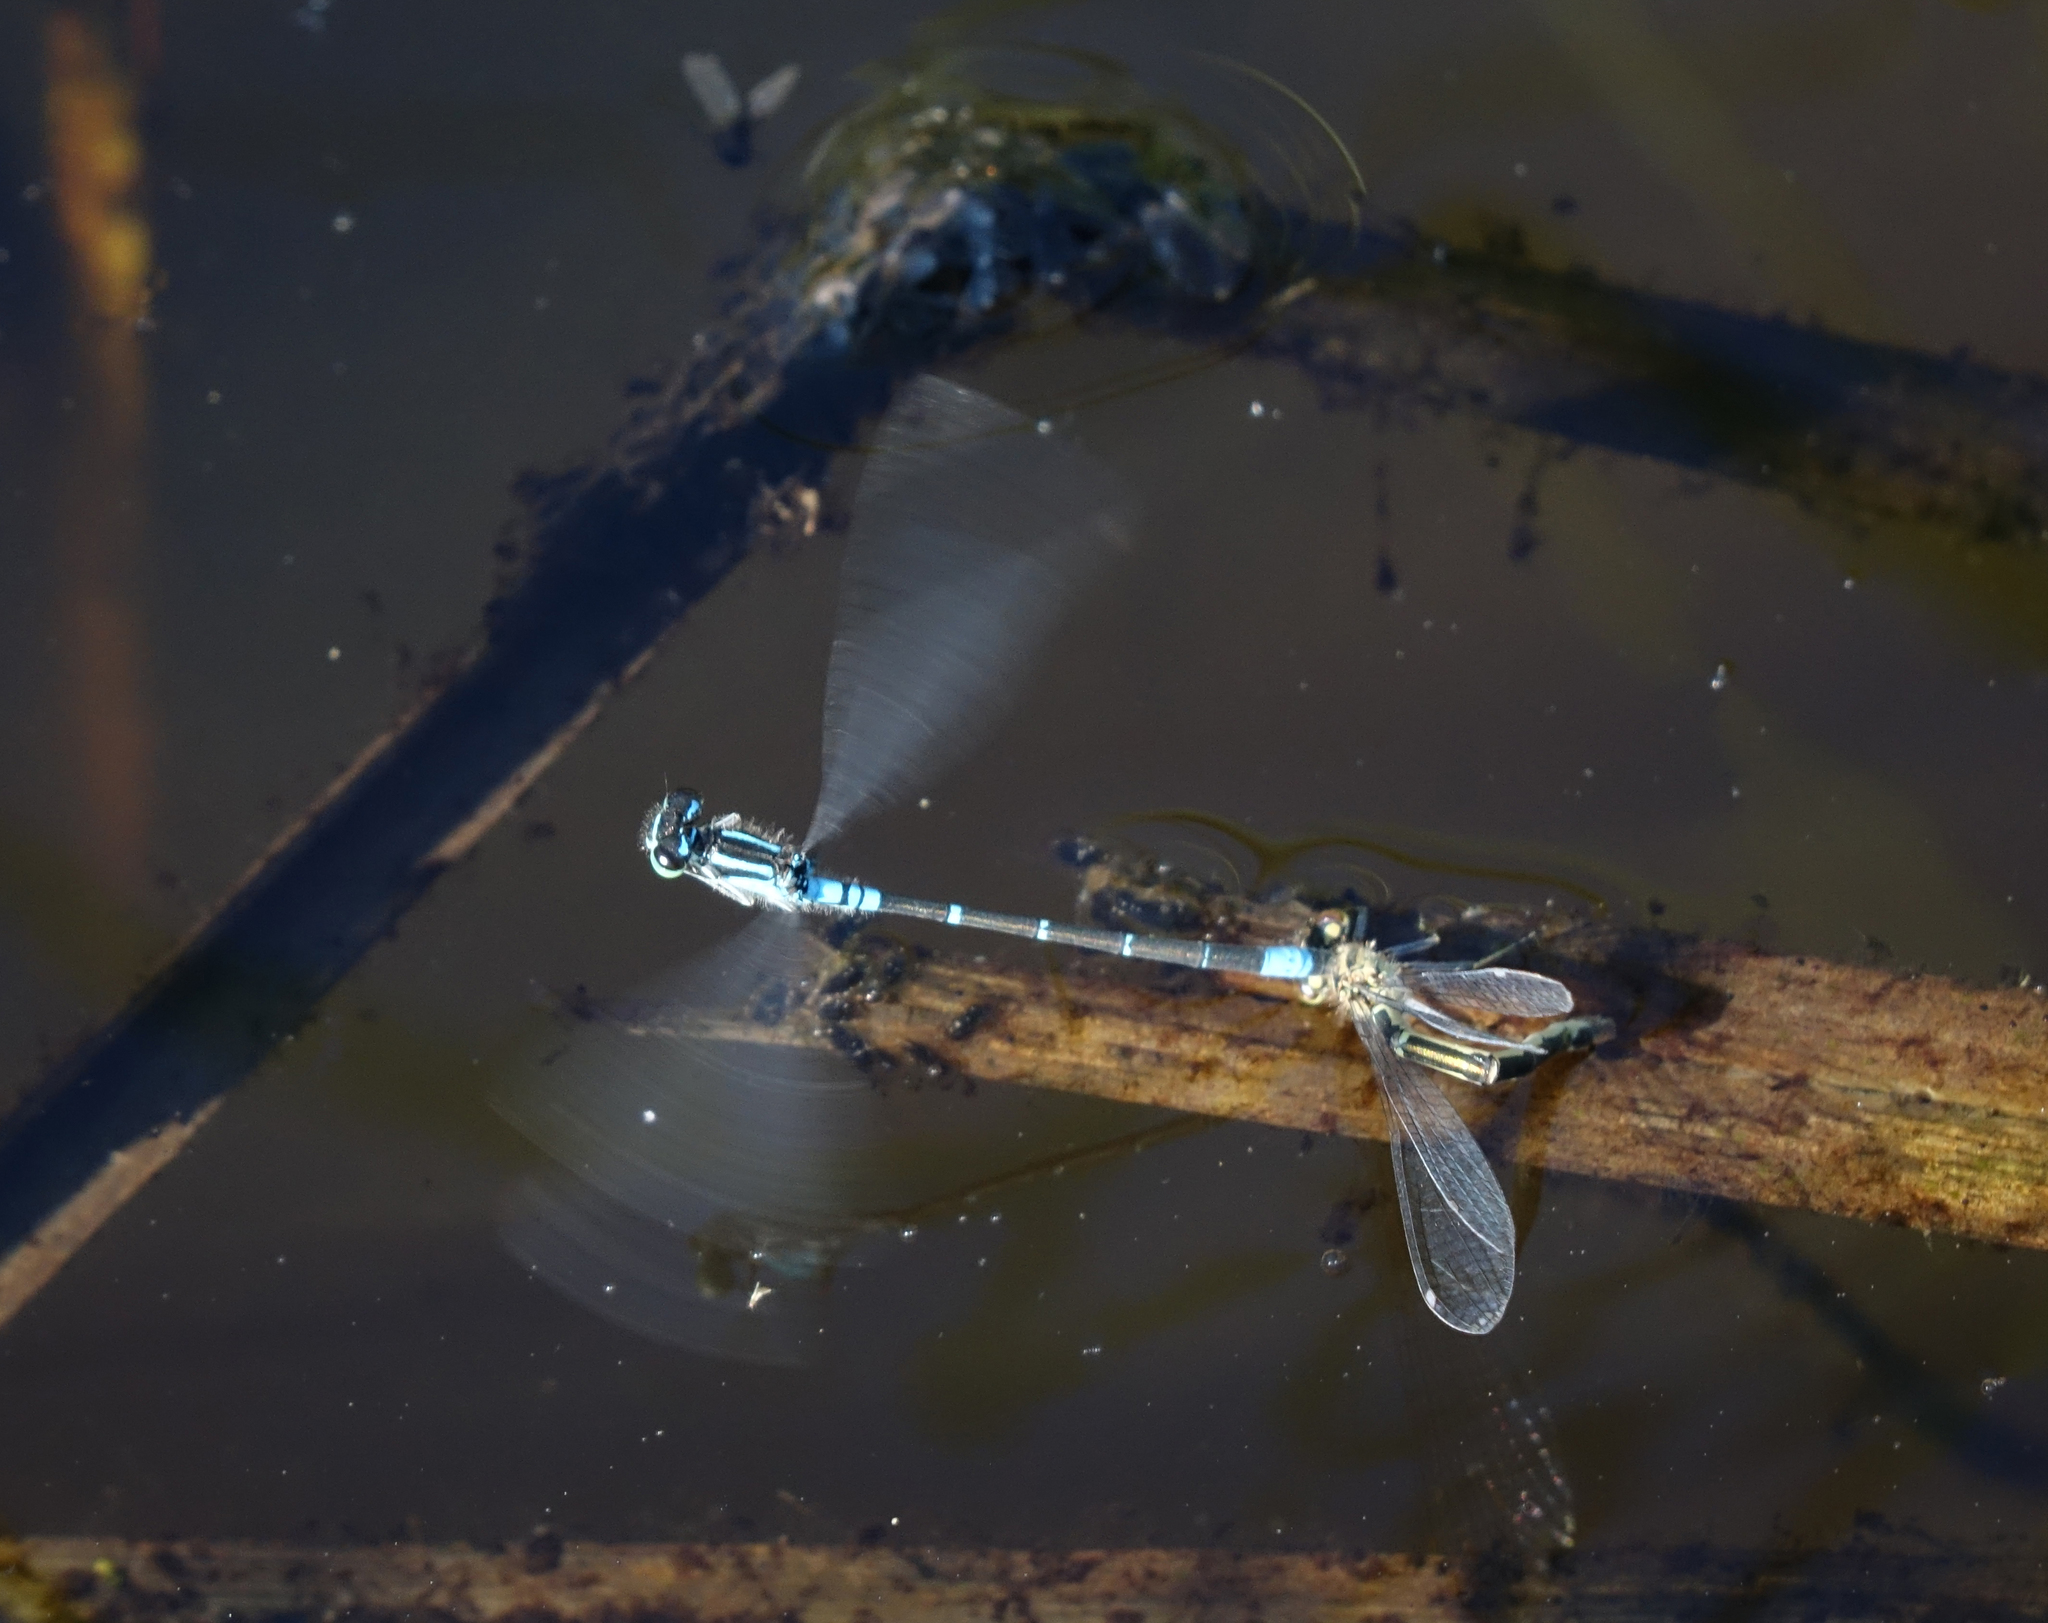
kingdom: Animalia
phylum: Arthropoda
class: Insecta
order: Odonata
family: Coenagrionidae
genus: Coenagrion
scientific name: Coenagrion glaciale
